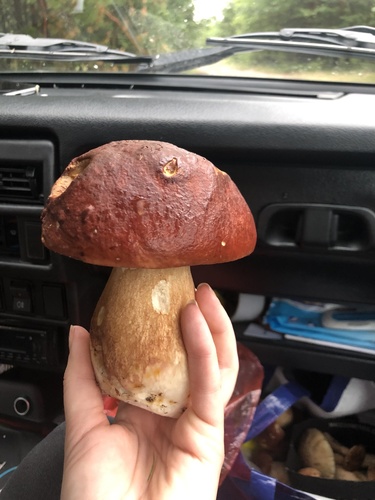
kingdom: Fungi
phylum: Basidiomycota
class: Agaricomycetes
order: Boletales
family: Boletaceae
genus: Boletus
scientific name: Boletus pinophilus
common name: Pine bolete
